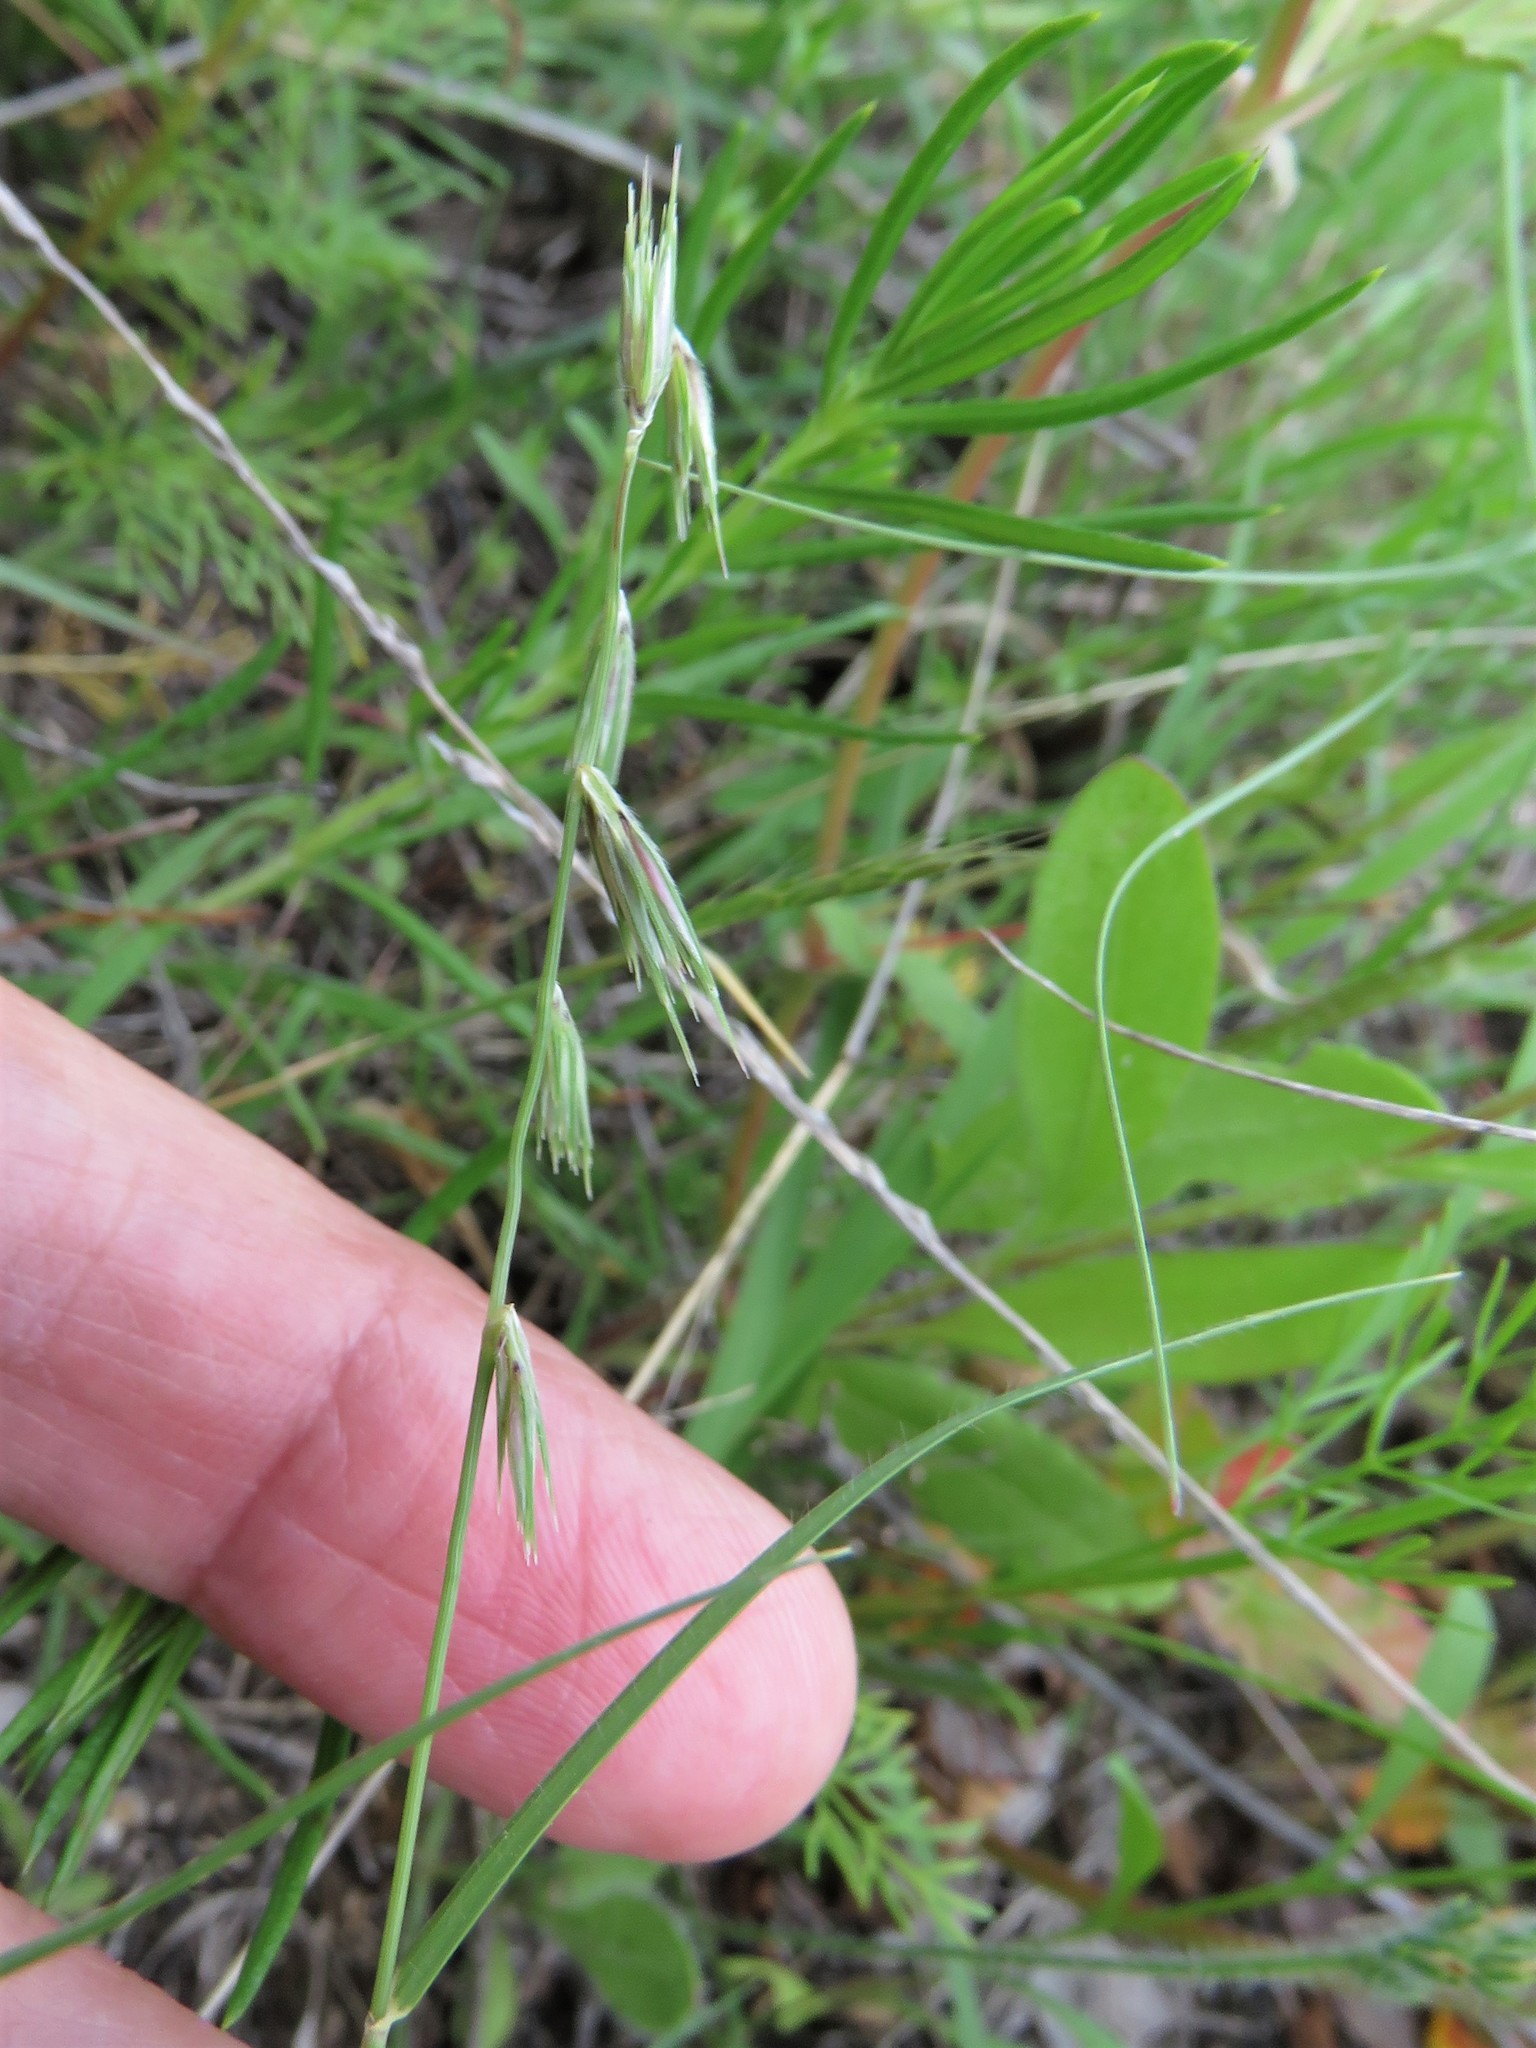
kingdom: Plantae
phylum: Tracheophyta
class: Liliopsida
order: Poales
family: Poaceae
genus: Bouteloua
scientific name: Bouteloua rigidiseta
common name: Texas grama
